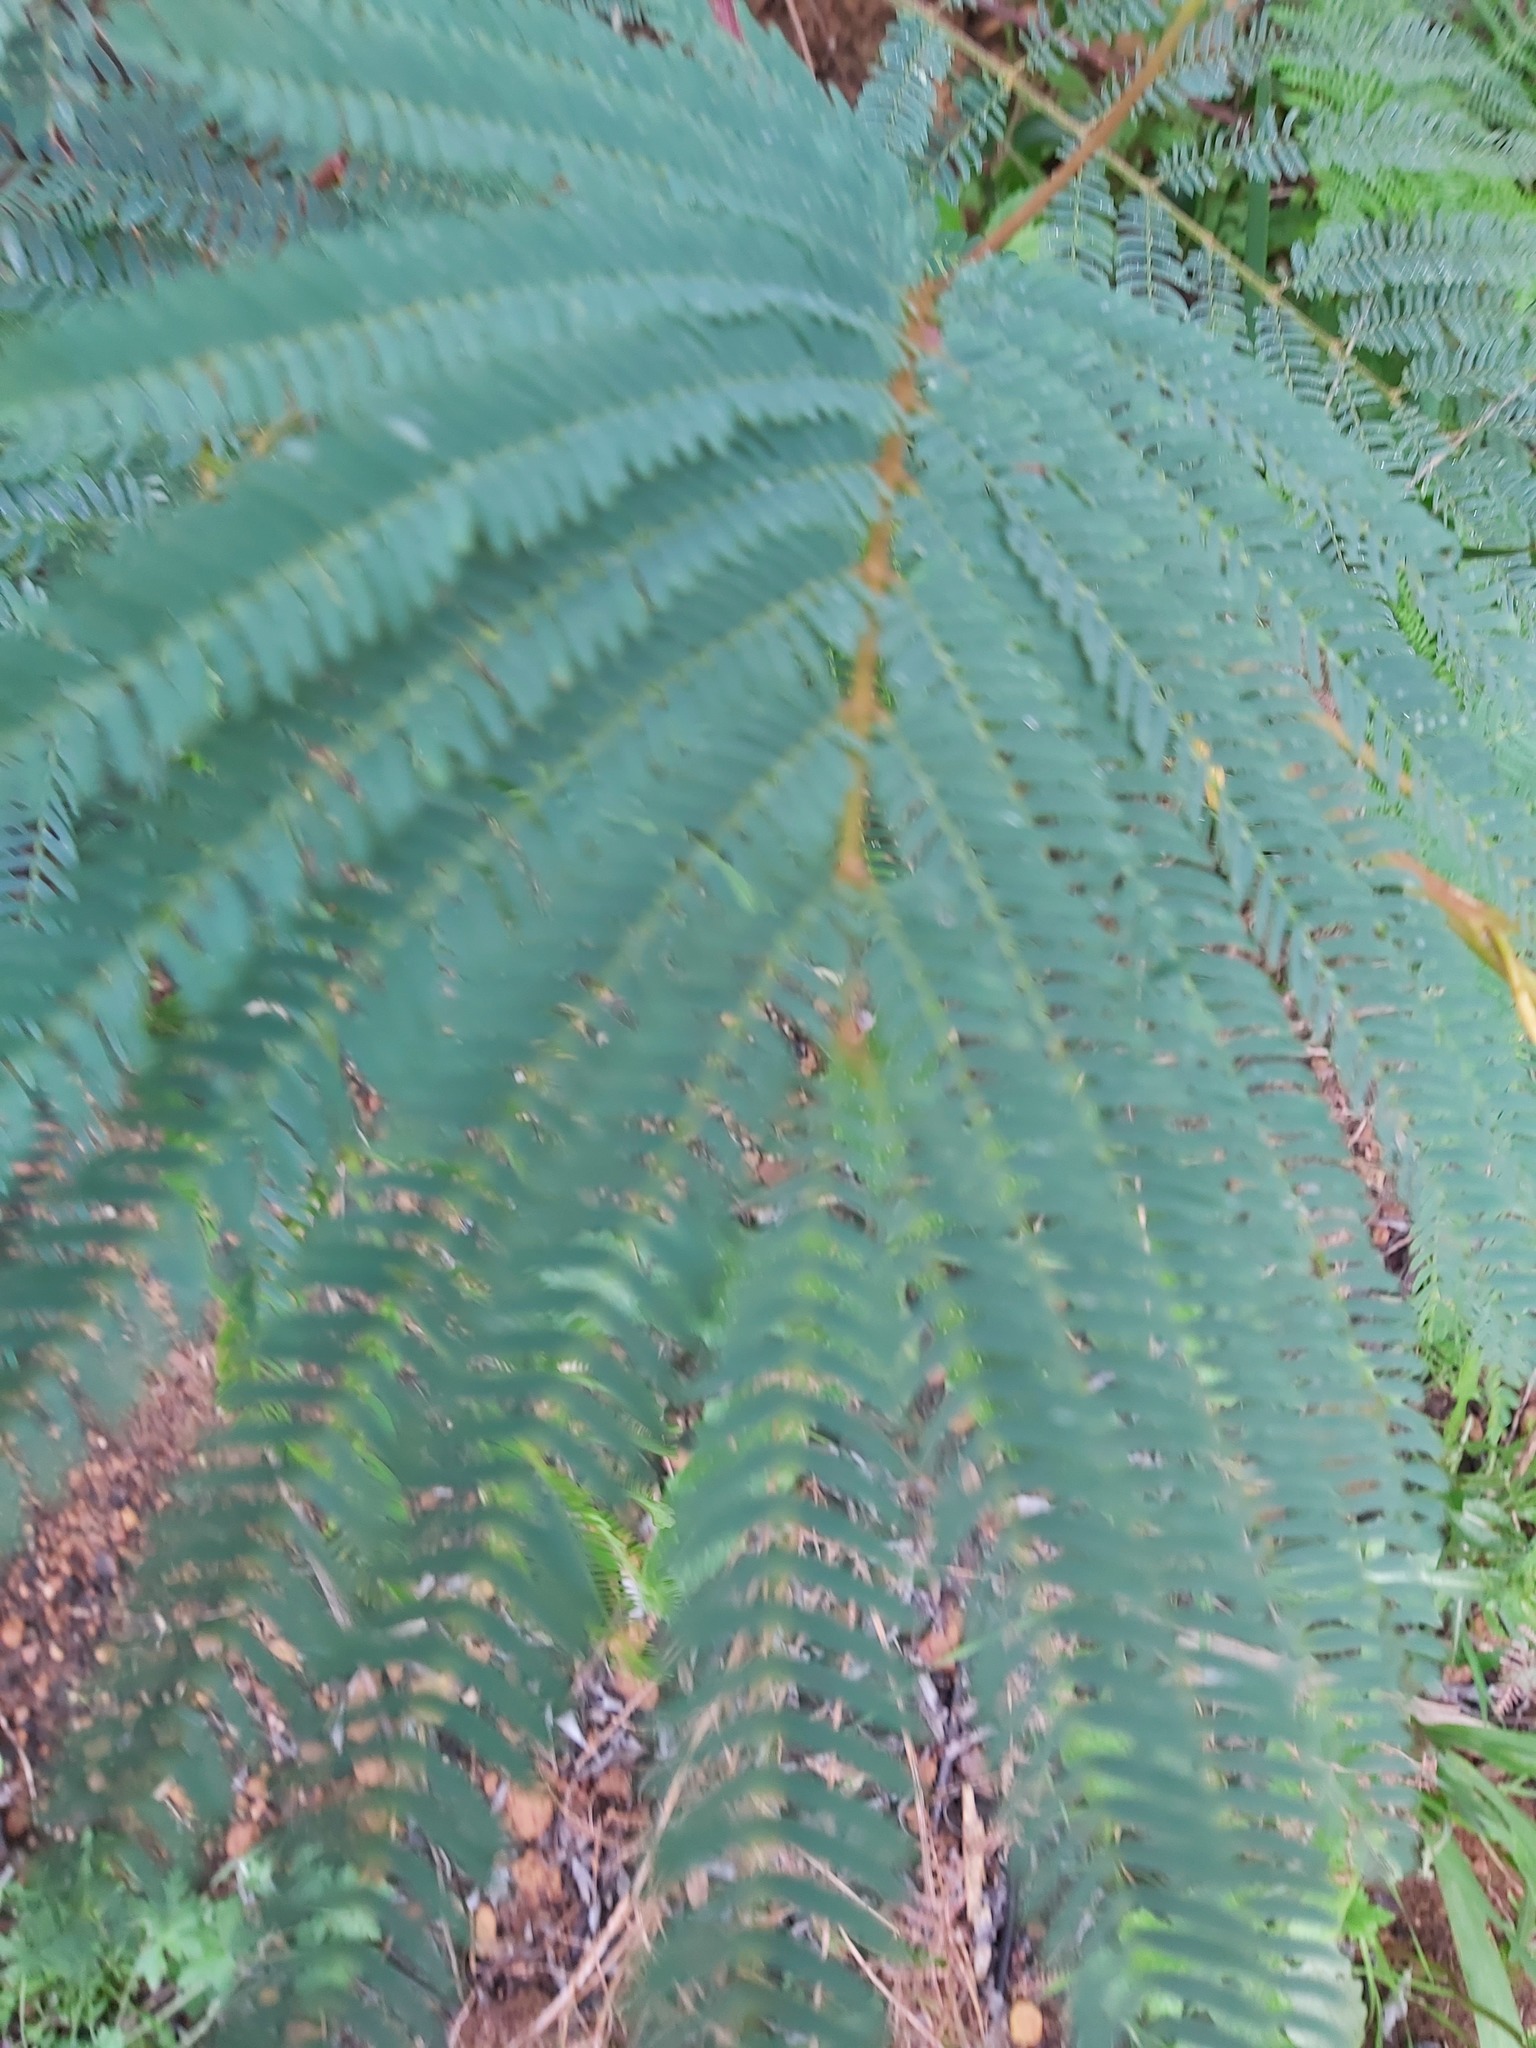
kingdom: Plantae
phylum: Tracheophyta
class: Magnoliopsida
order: Fabales
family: Fabaceae
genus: Paraserianthes
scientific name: Paraserianthes lophantha
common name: Plume albizia
